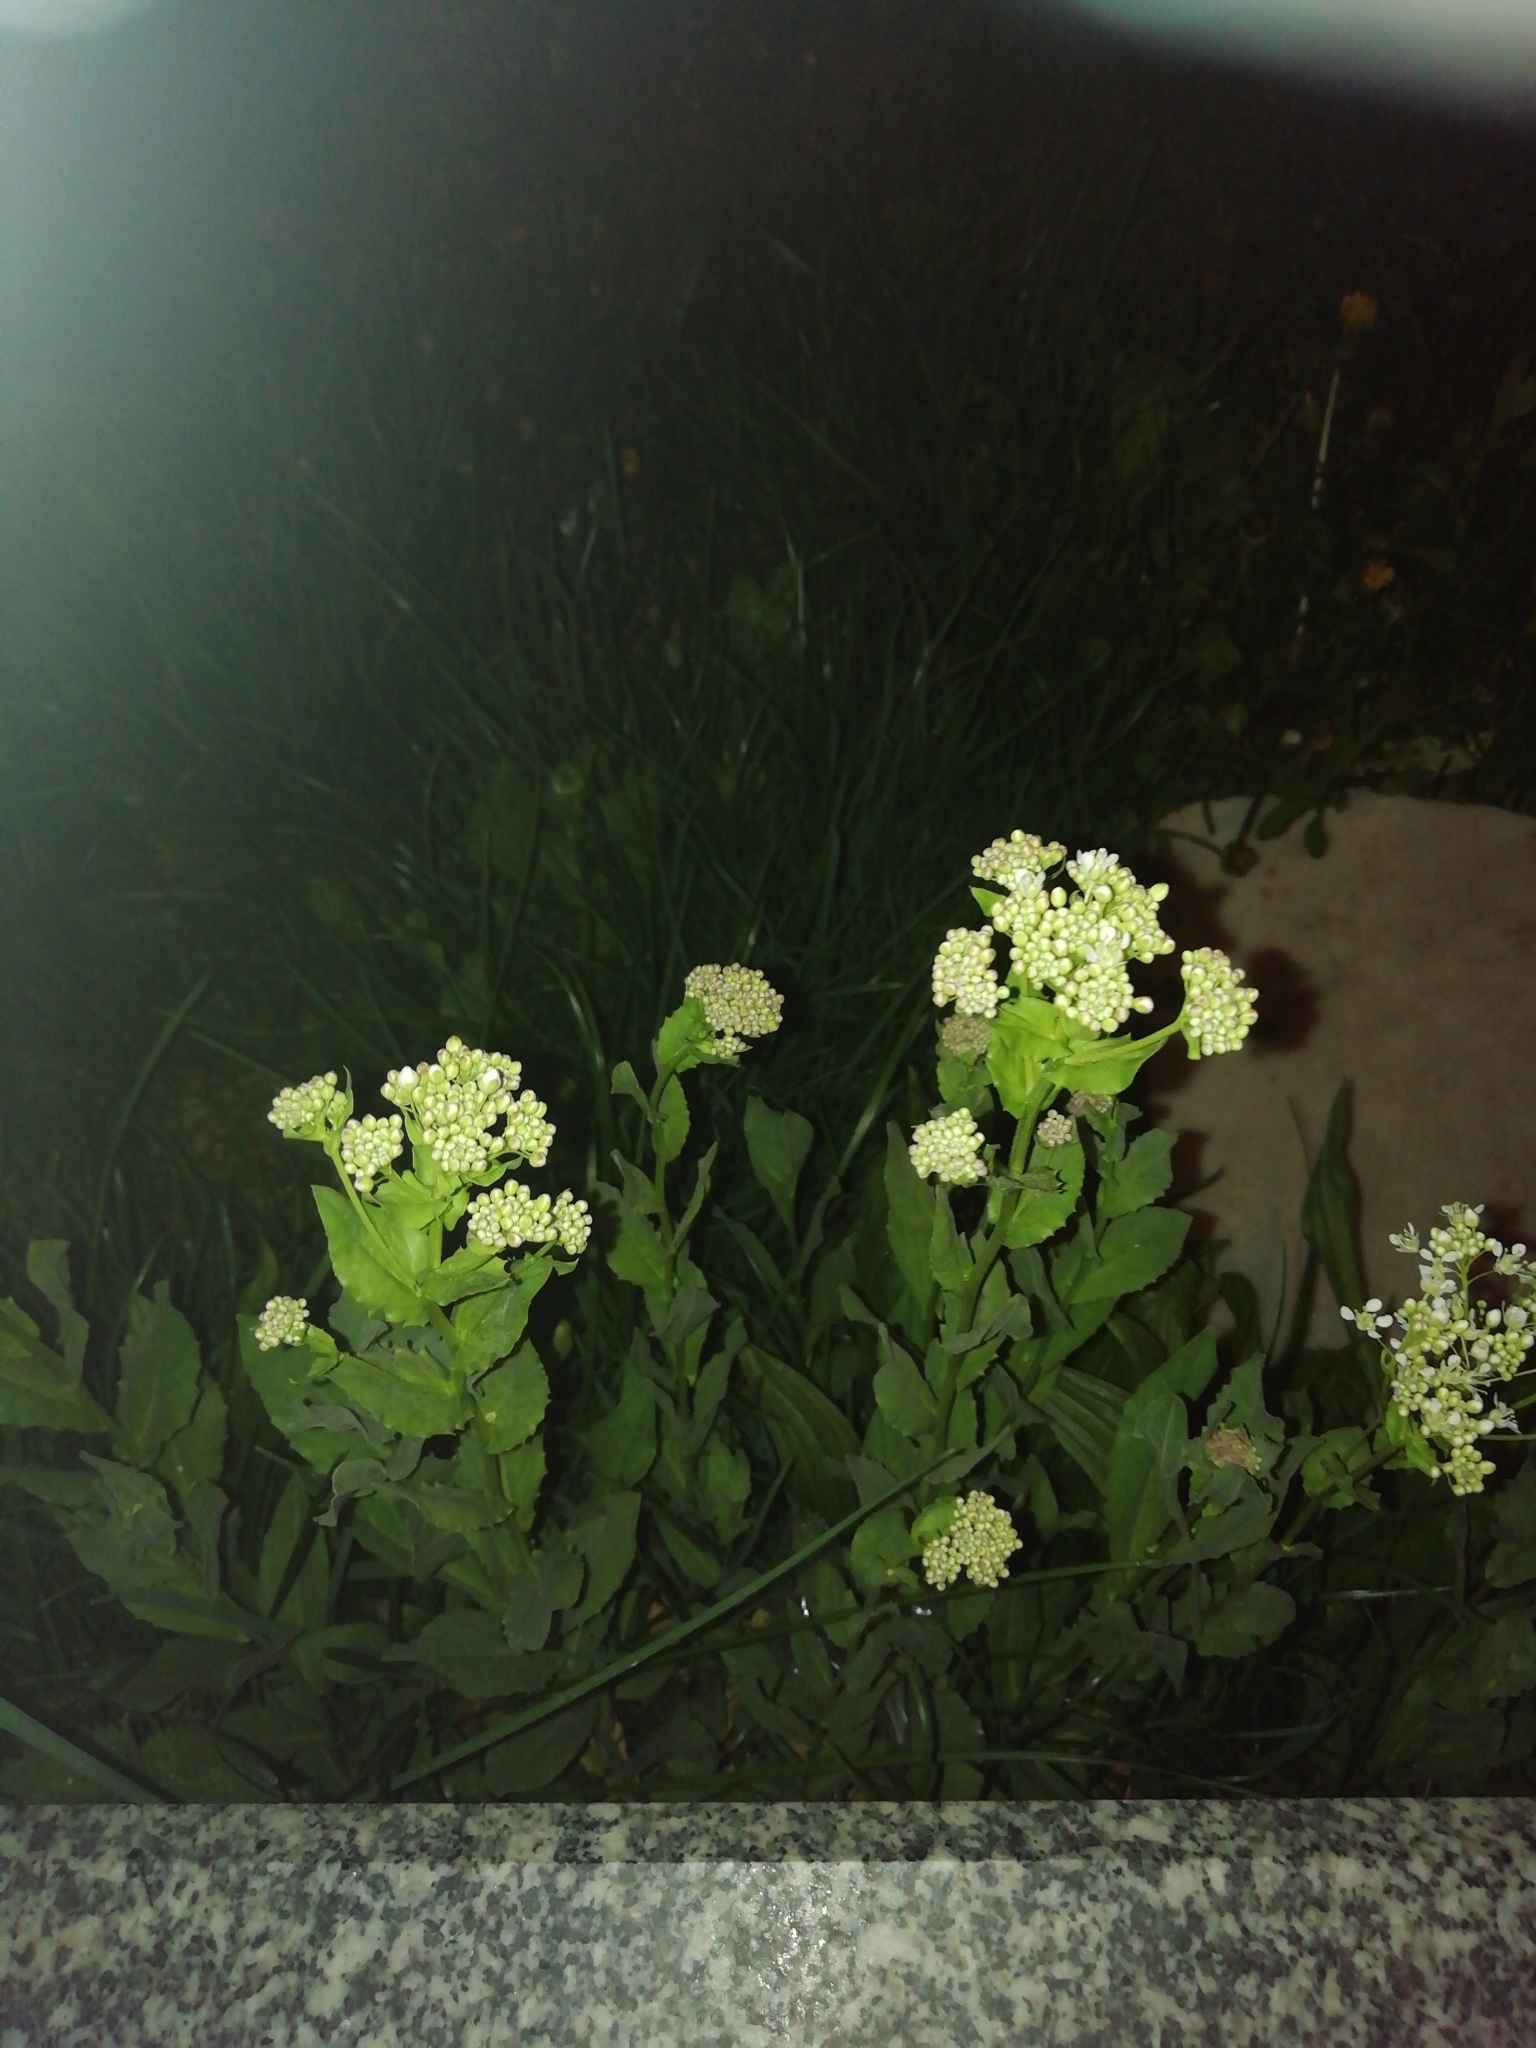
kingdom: Plantae
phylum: Tracheophyta
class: Magnoliopsida
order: Brassicales
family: Brassicaceae
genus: Lepidium
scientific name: Lepidium draba
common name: Hoary cress
